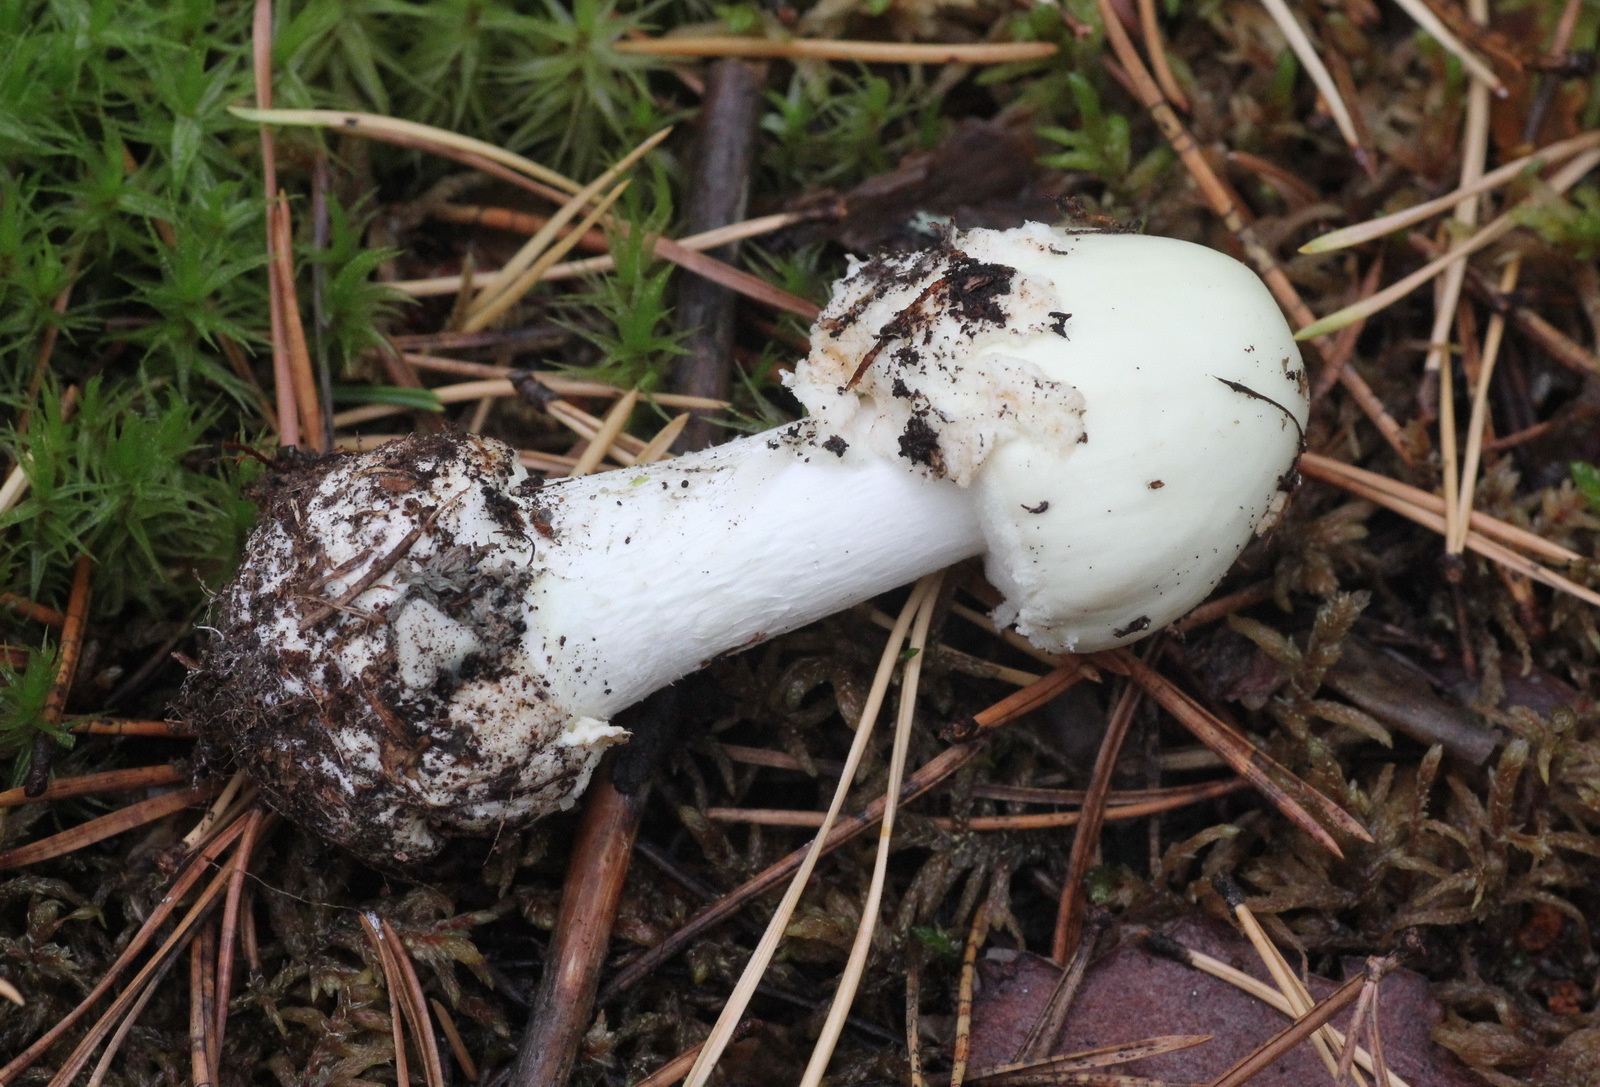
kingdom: Fungi
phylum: Basidiomycota
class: Agaricomycetes
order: Agaricales
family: Amanitaceae
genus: Amanita
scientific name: Amanita citrina
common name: False death-cap
